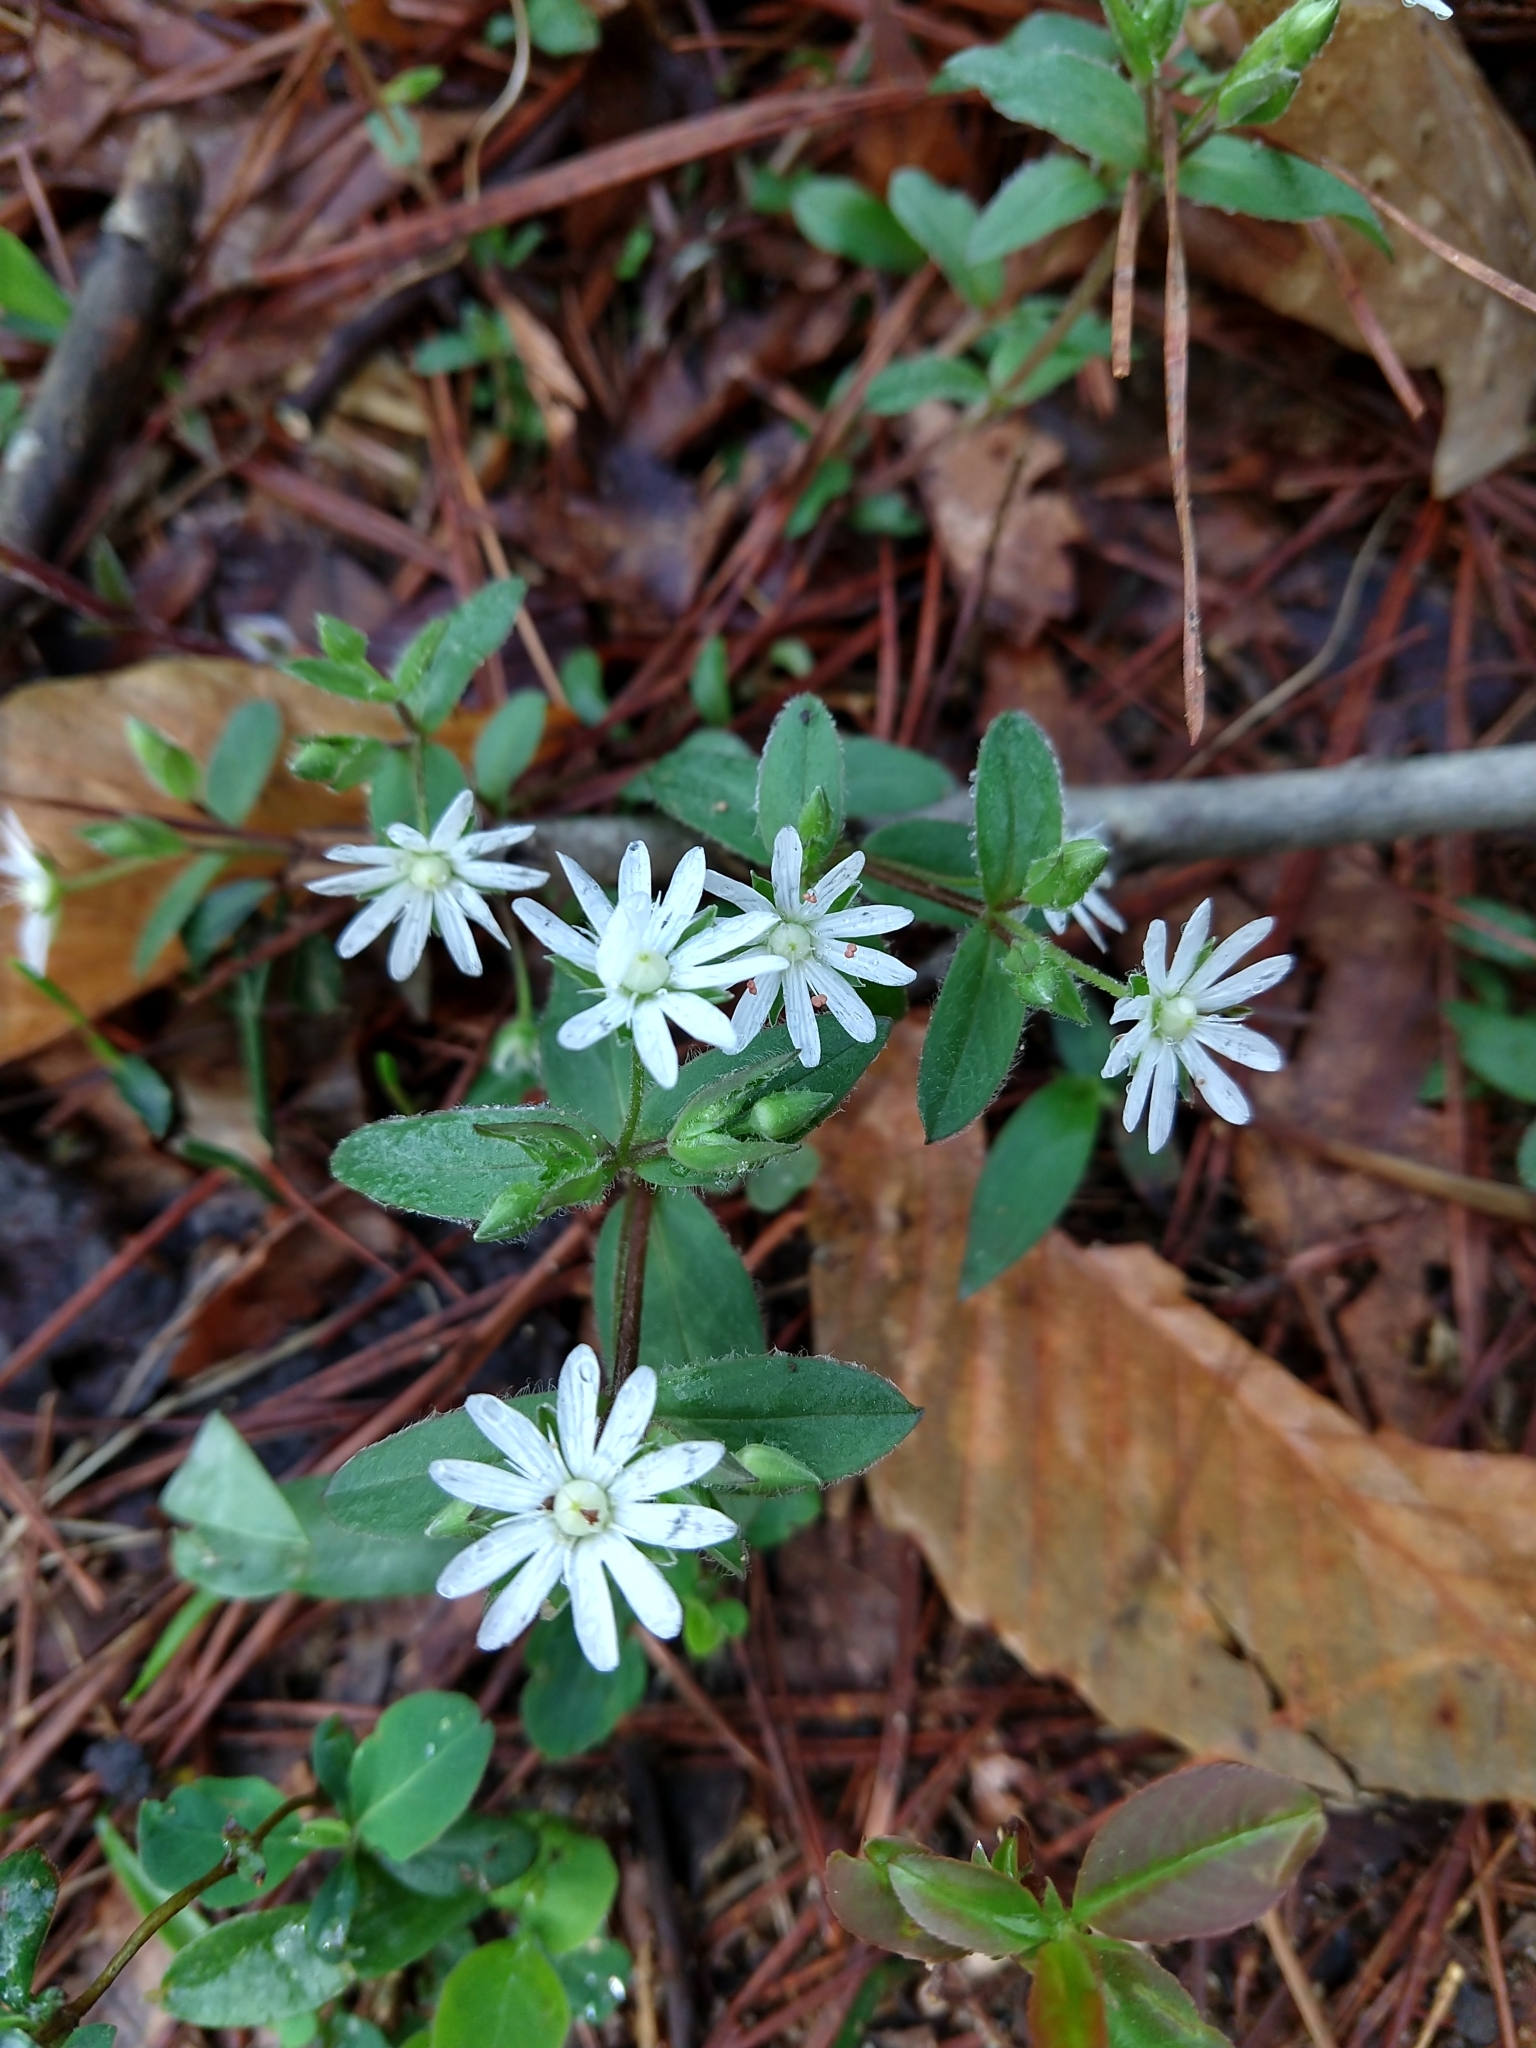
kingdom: Plantae
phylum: Tracheophyta
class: Magnoliopsida
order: Caryophyllales
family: Caryophyllaceae
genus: Stellaria
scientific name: Stellaria pubera
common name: Star chickweed
